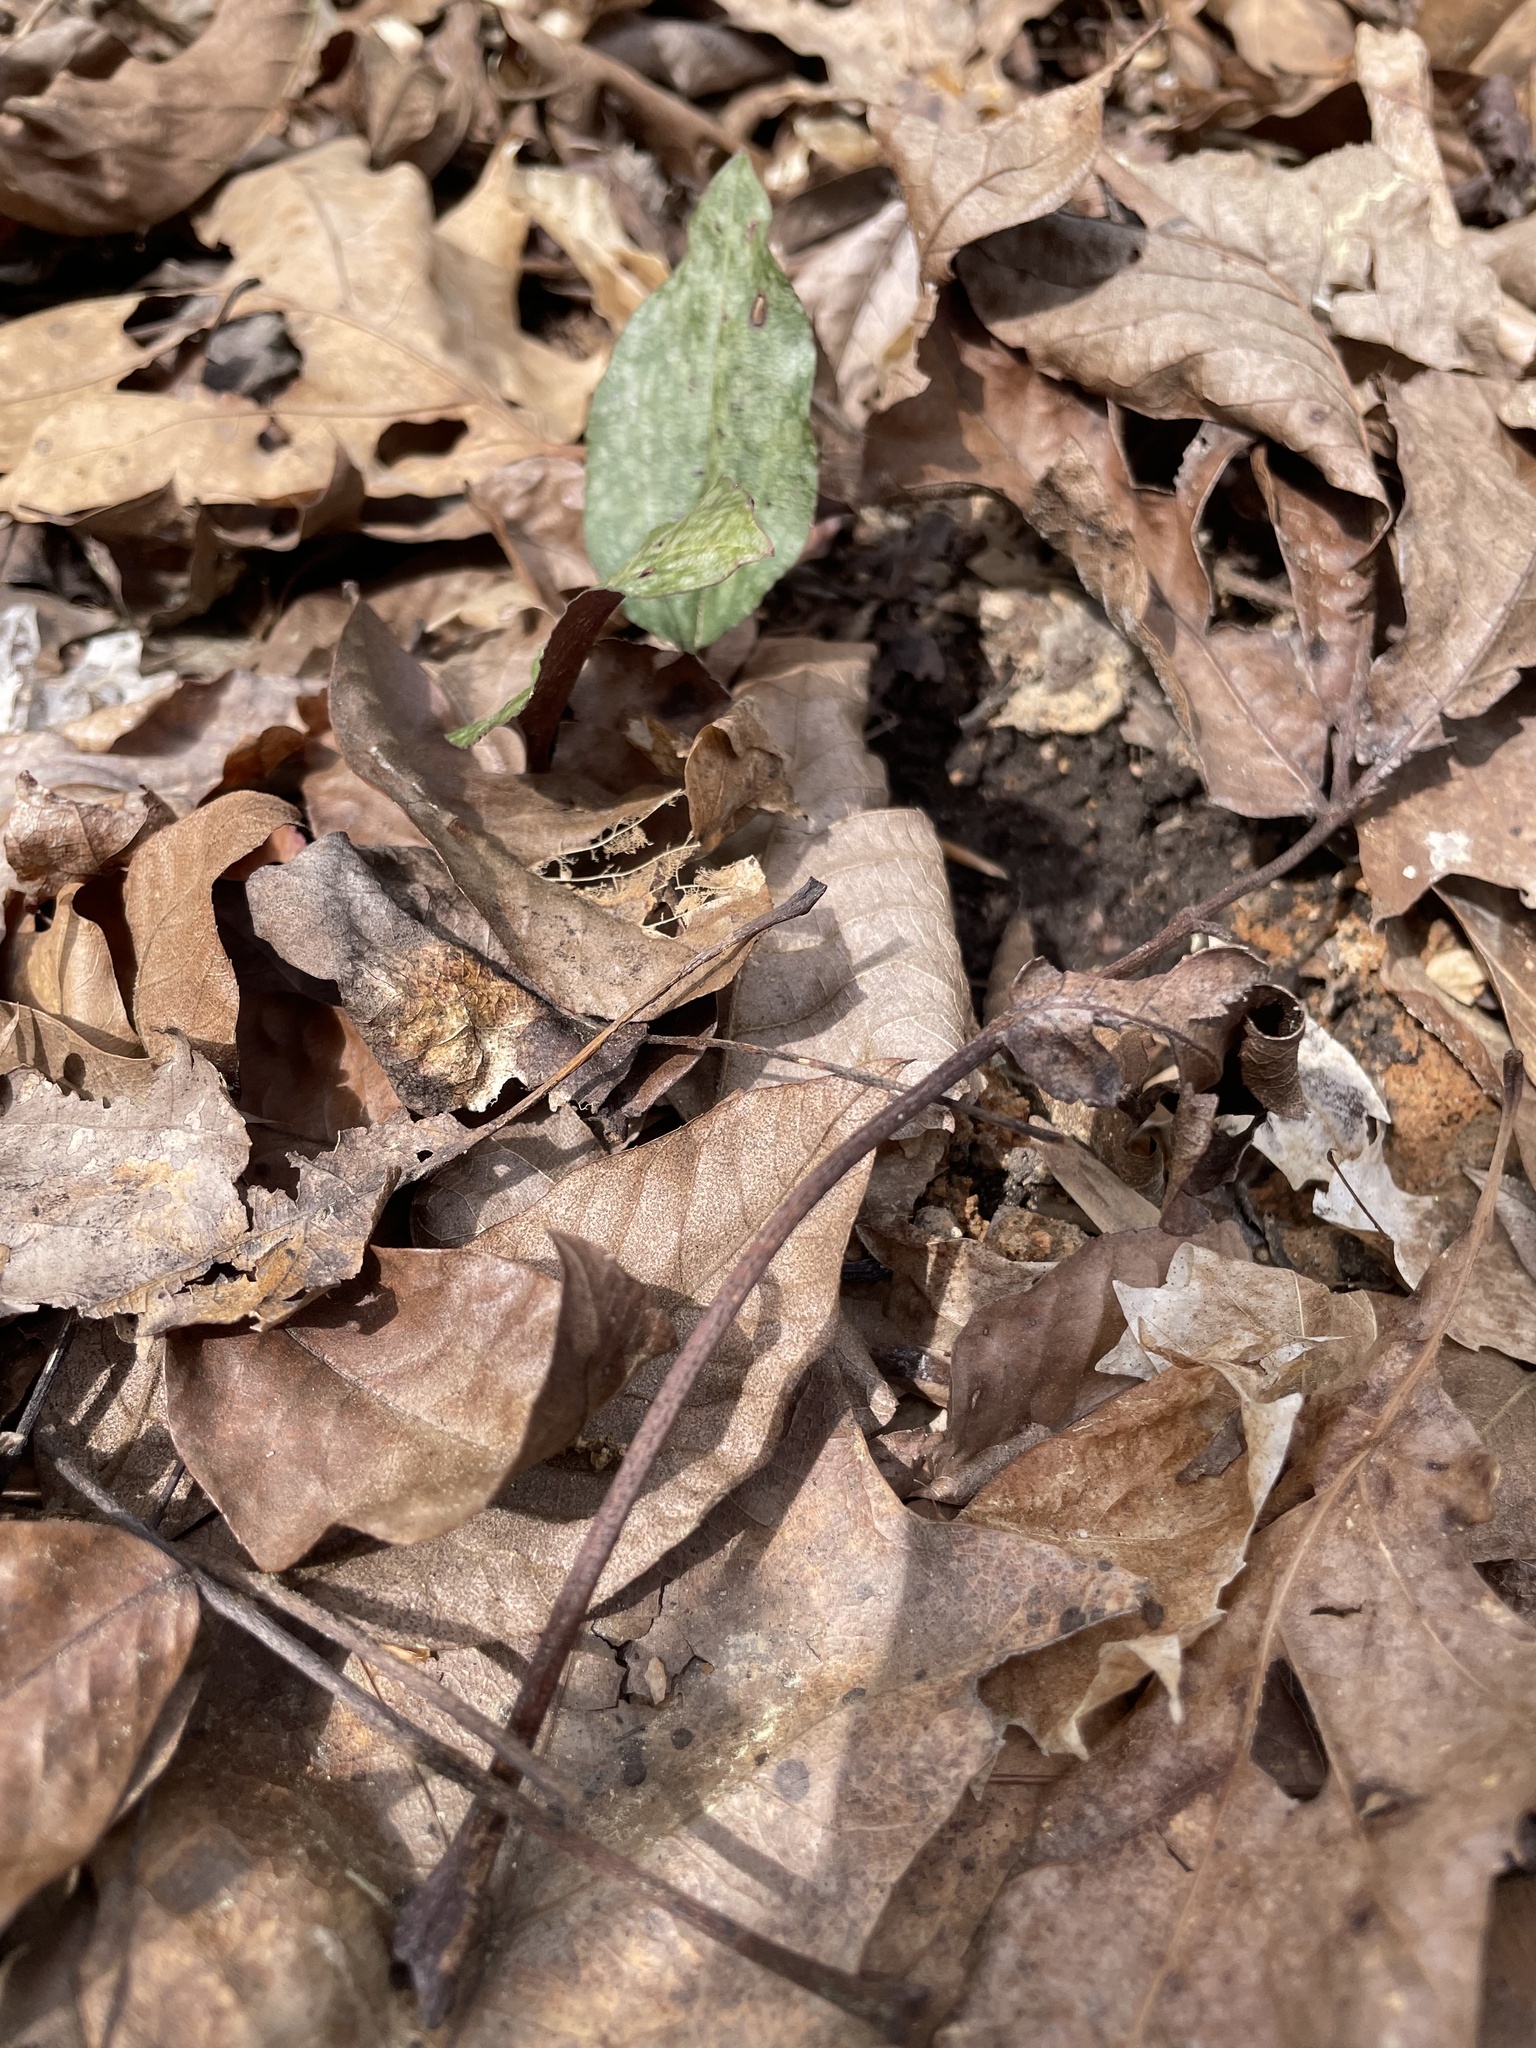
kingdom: Plantae
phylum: Tracheophyta
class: Liliopsida
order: Asparagales
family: Orchidaceae
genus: Tipularia
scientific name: Tipularia discolor
